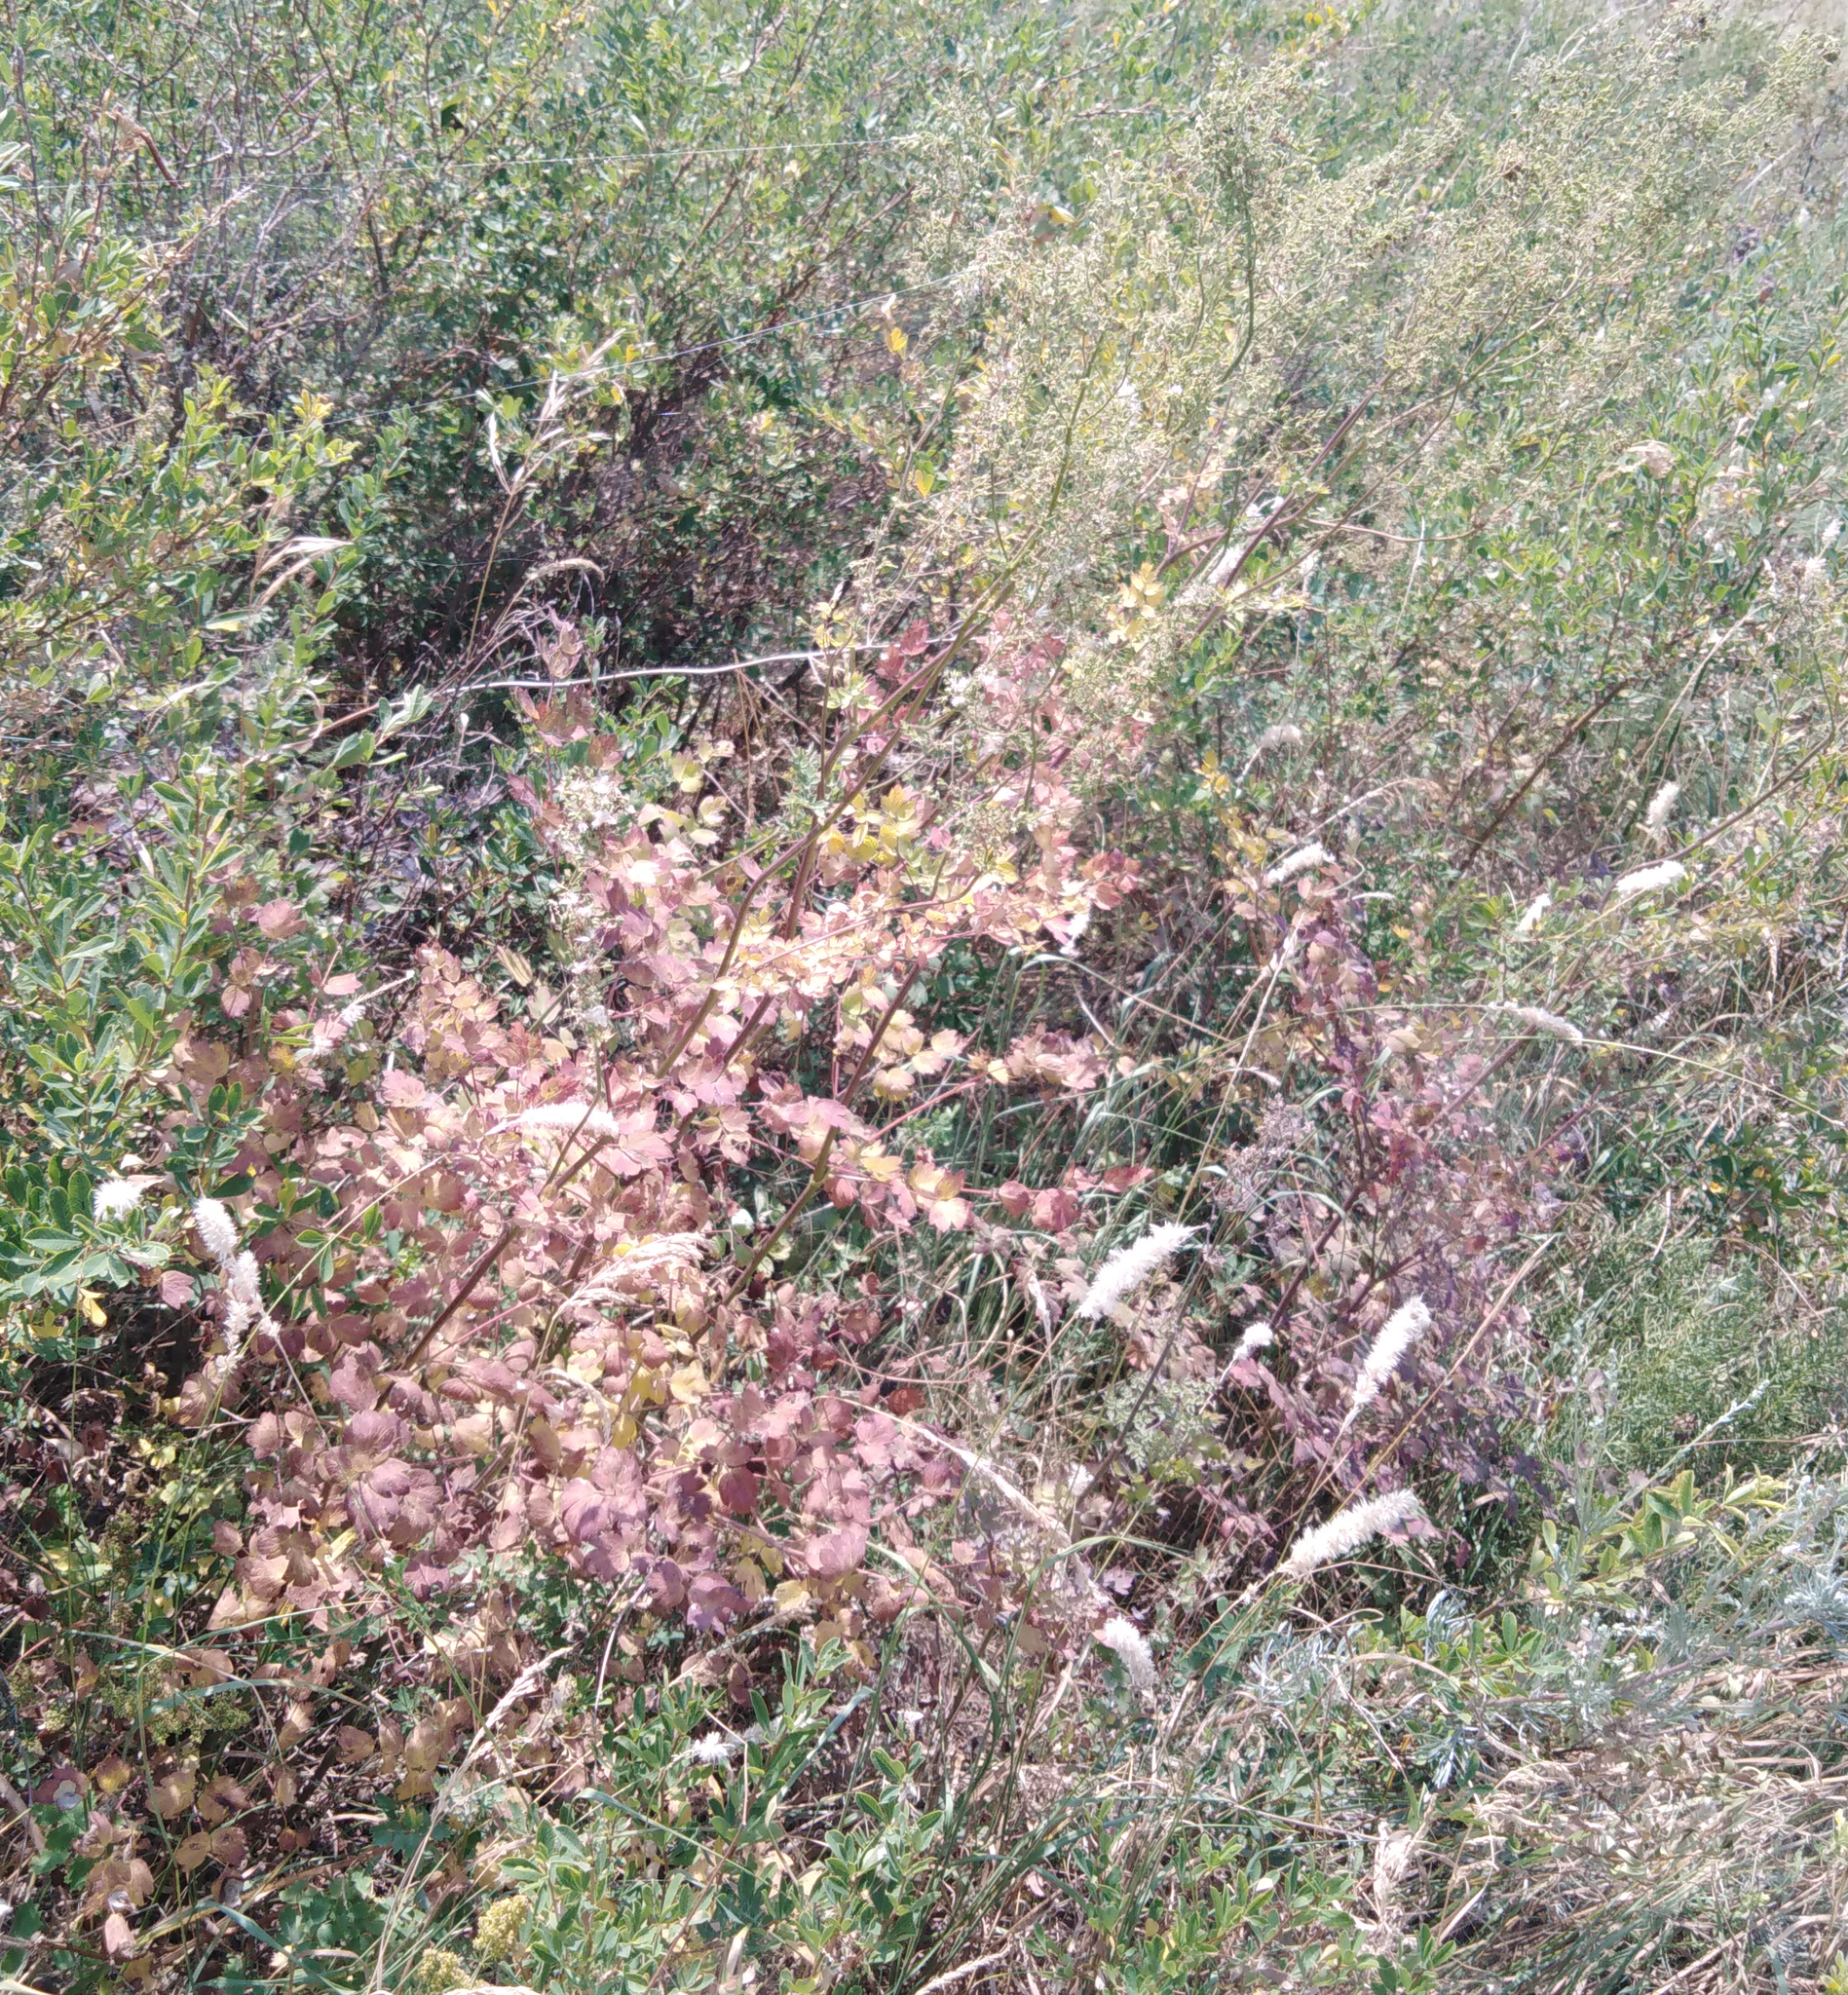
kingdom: Plantae
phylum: Tracheophyta
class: Magnoliopsida
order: Ranunculales
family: Ranunculaceae
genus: Thalictrum
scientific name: Thalictrum minus
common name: Lesser meadow-rue
